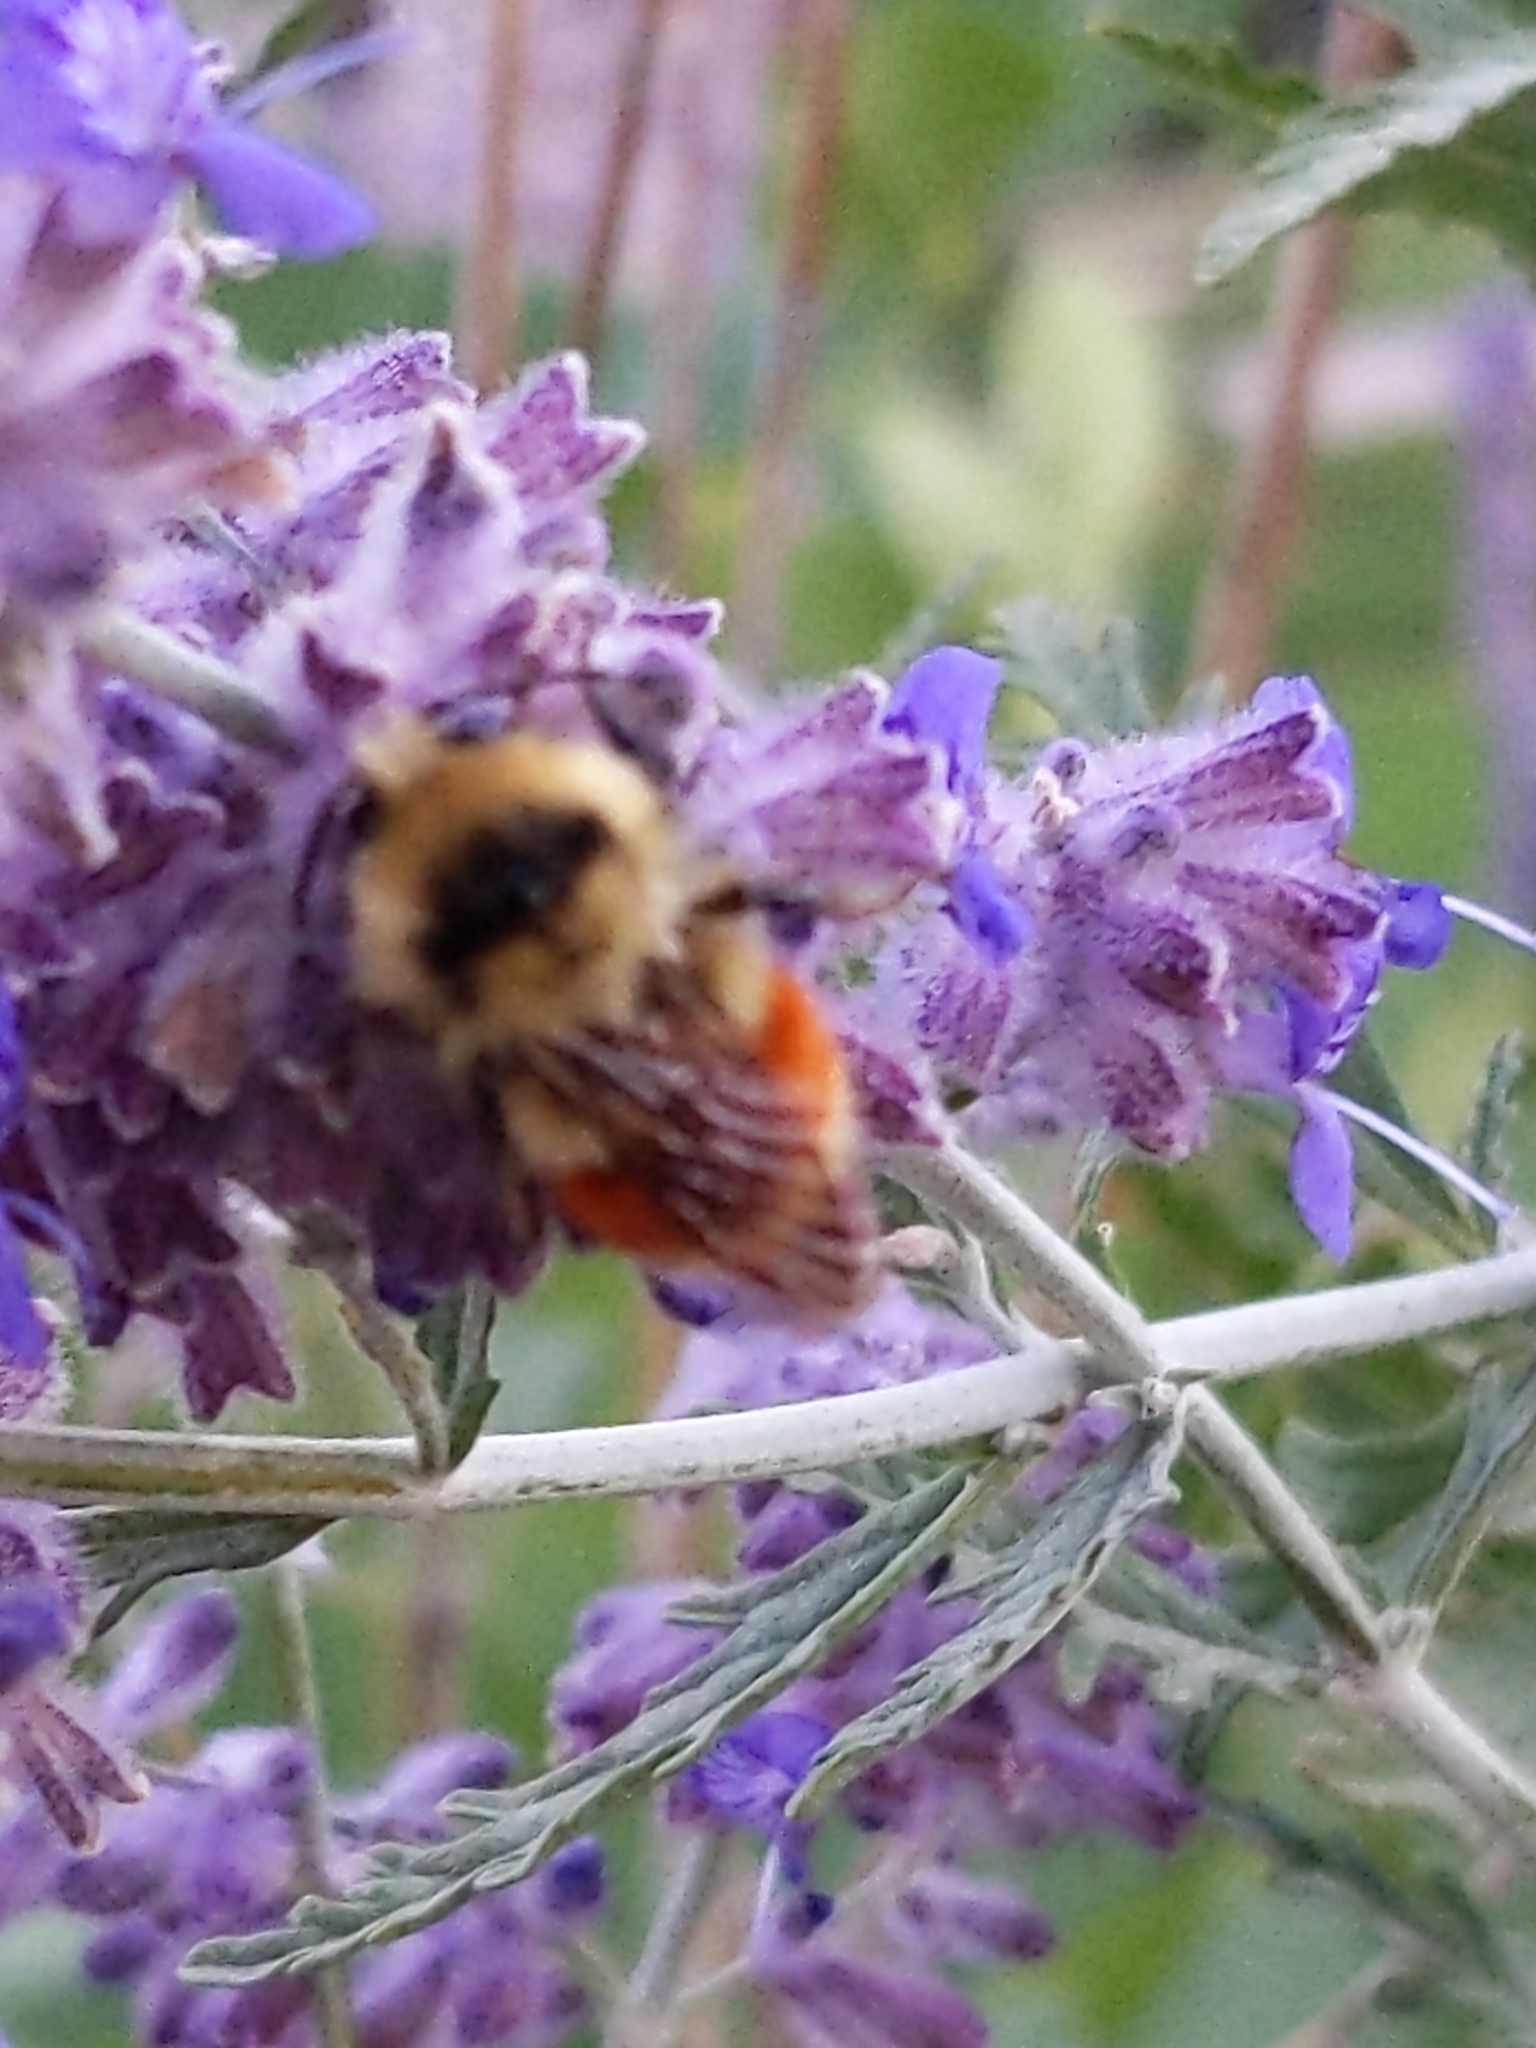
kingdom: Animalia
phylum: Arthropoda
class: Insecta
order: Hymenoptera
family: Apidae
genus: Bombus
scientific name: Bombus huntii
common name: Hunt bumble bee
